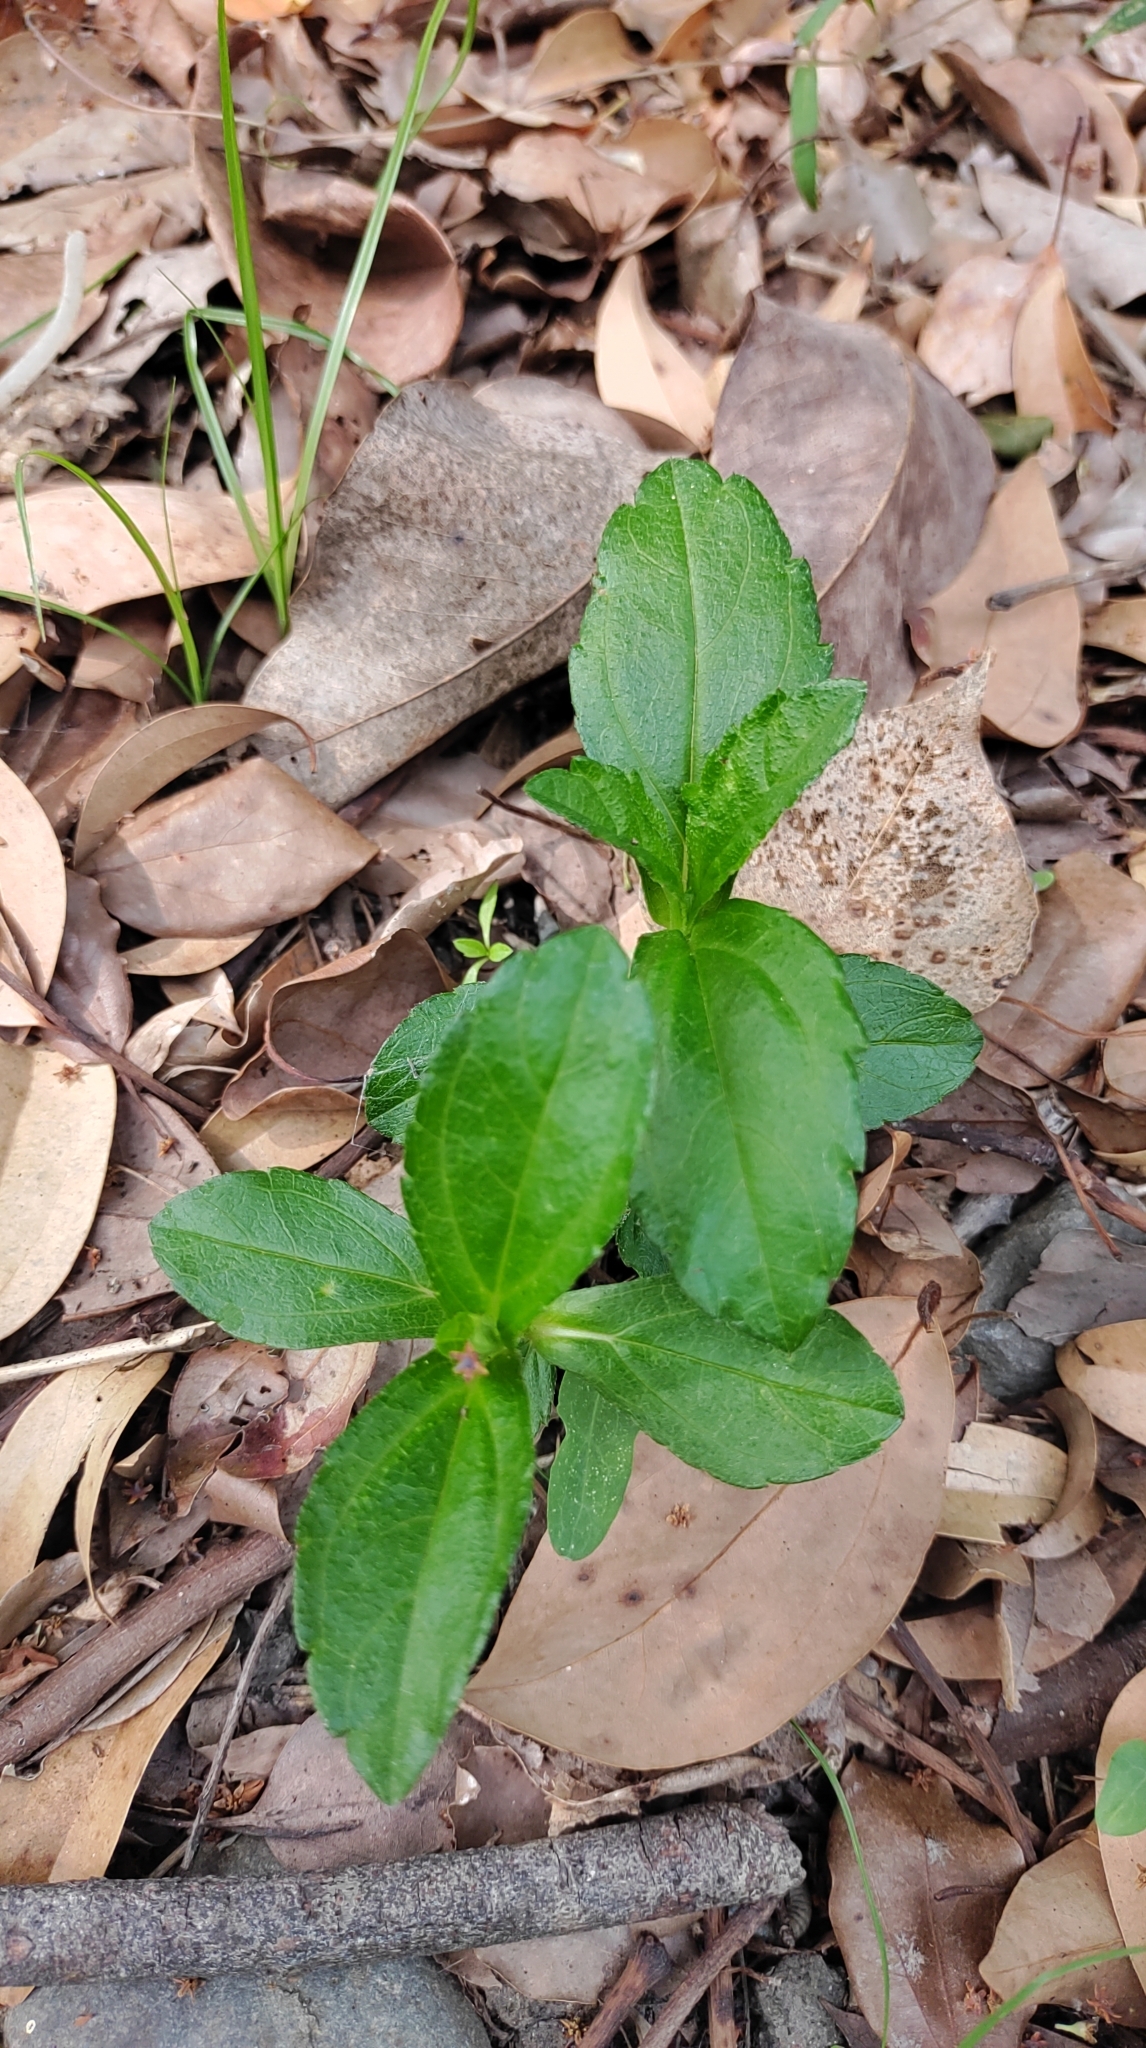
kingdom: Plantae
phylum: Tracheophyta
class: Magnoliopsida
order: Asterales
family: Asteraceae
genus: Sphagneticola
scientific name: Sphagneticola trilobata
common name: Bay biscayne creeping-oxeye
